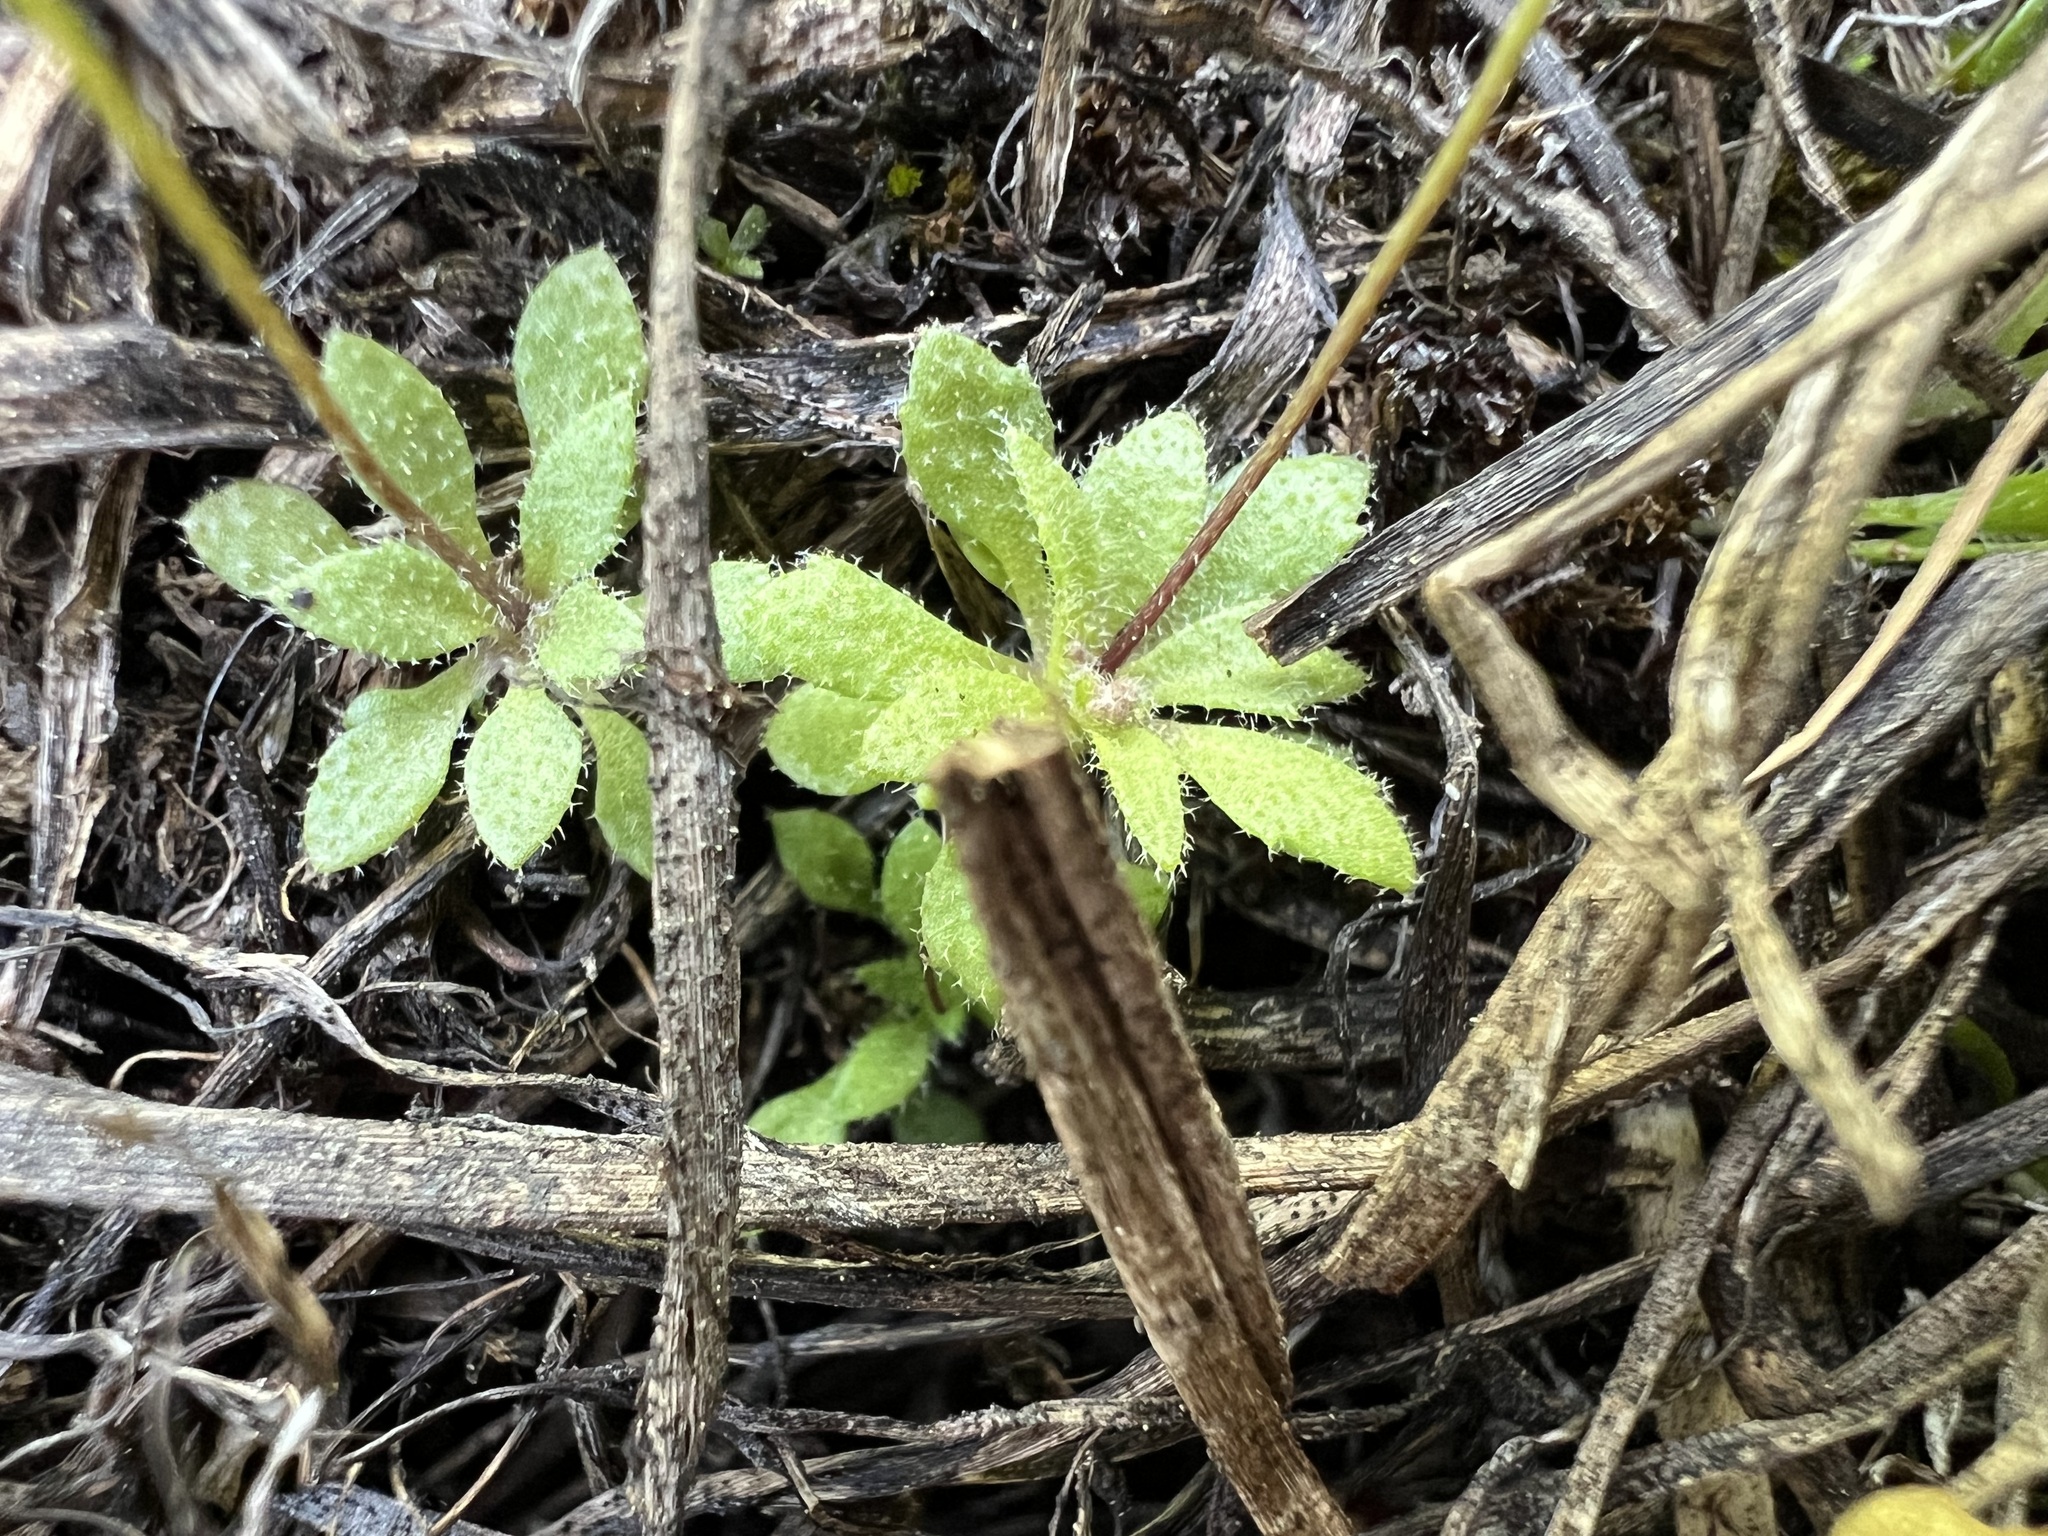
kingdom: Plantae
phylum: Tracheophyta
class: Magnoliopsida
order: Brassicales
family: Brassicaceae
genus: Draba
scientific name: Draba verna
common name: Spring draba
